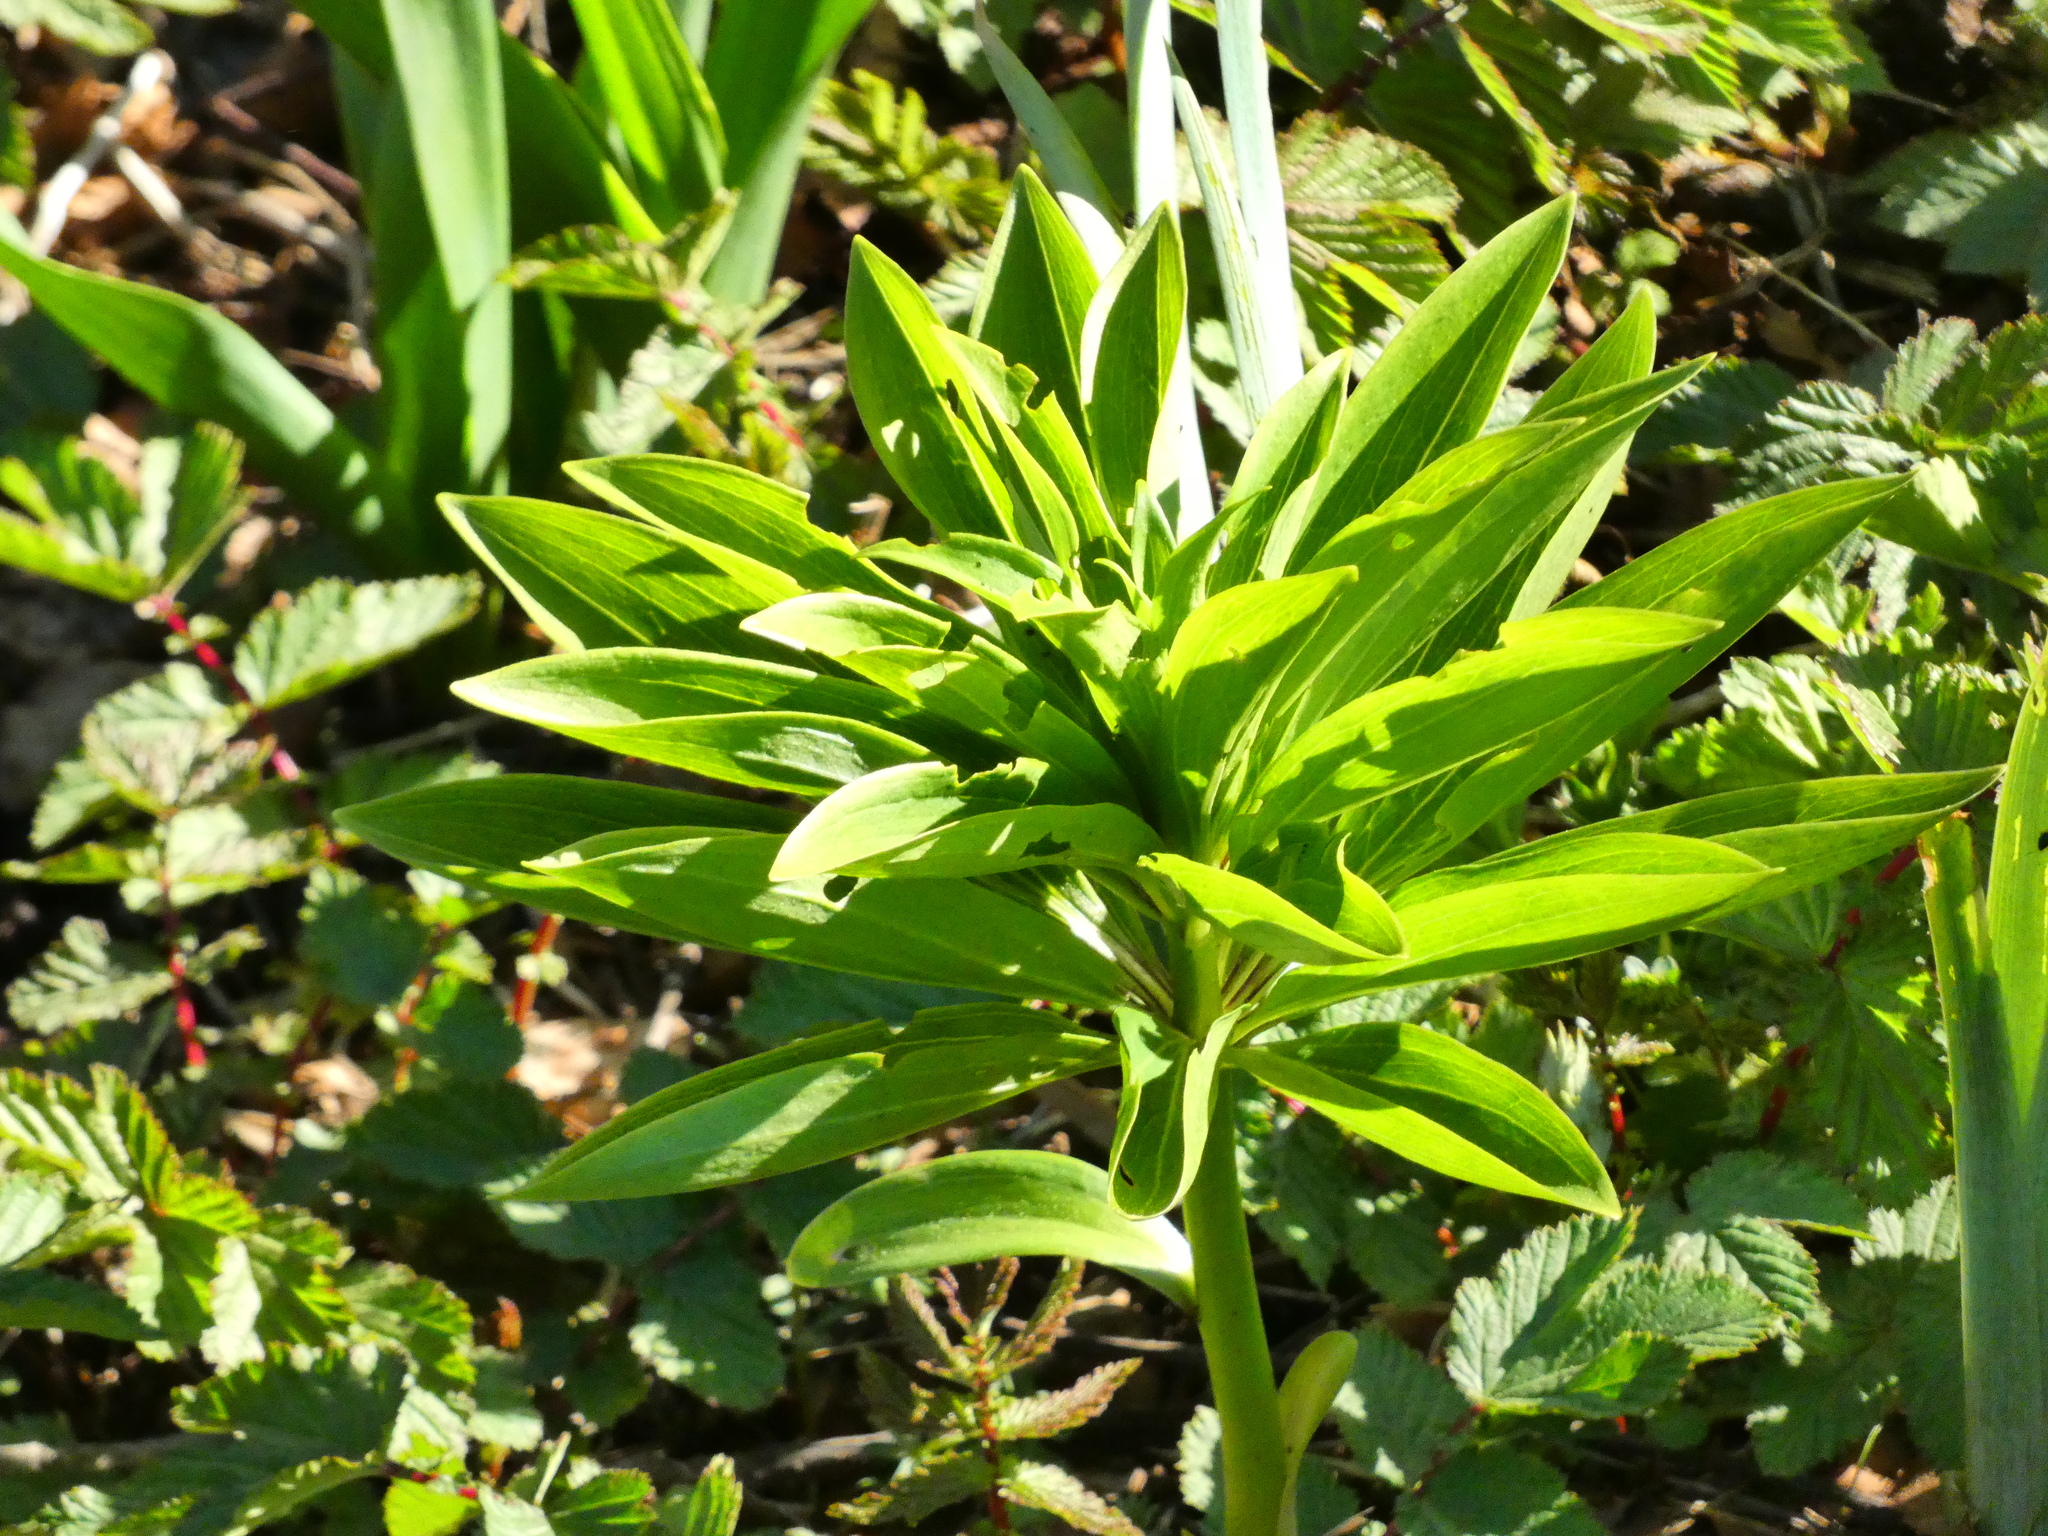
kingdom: Plantae
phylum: Tracheophyta
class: Liliopsida
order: Liliales
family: Liliaceae
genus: Lilium
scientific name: Lilium martagon
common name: Martagon lily
